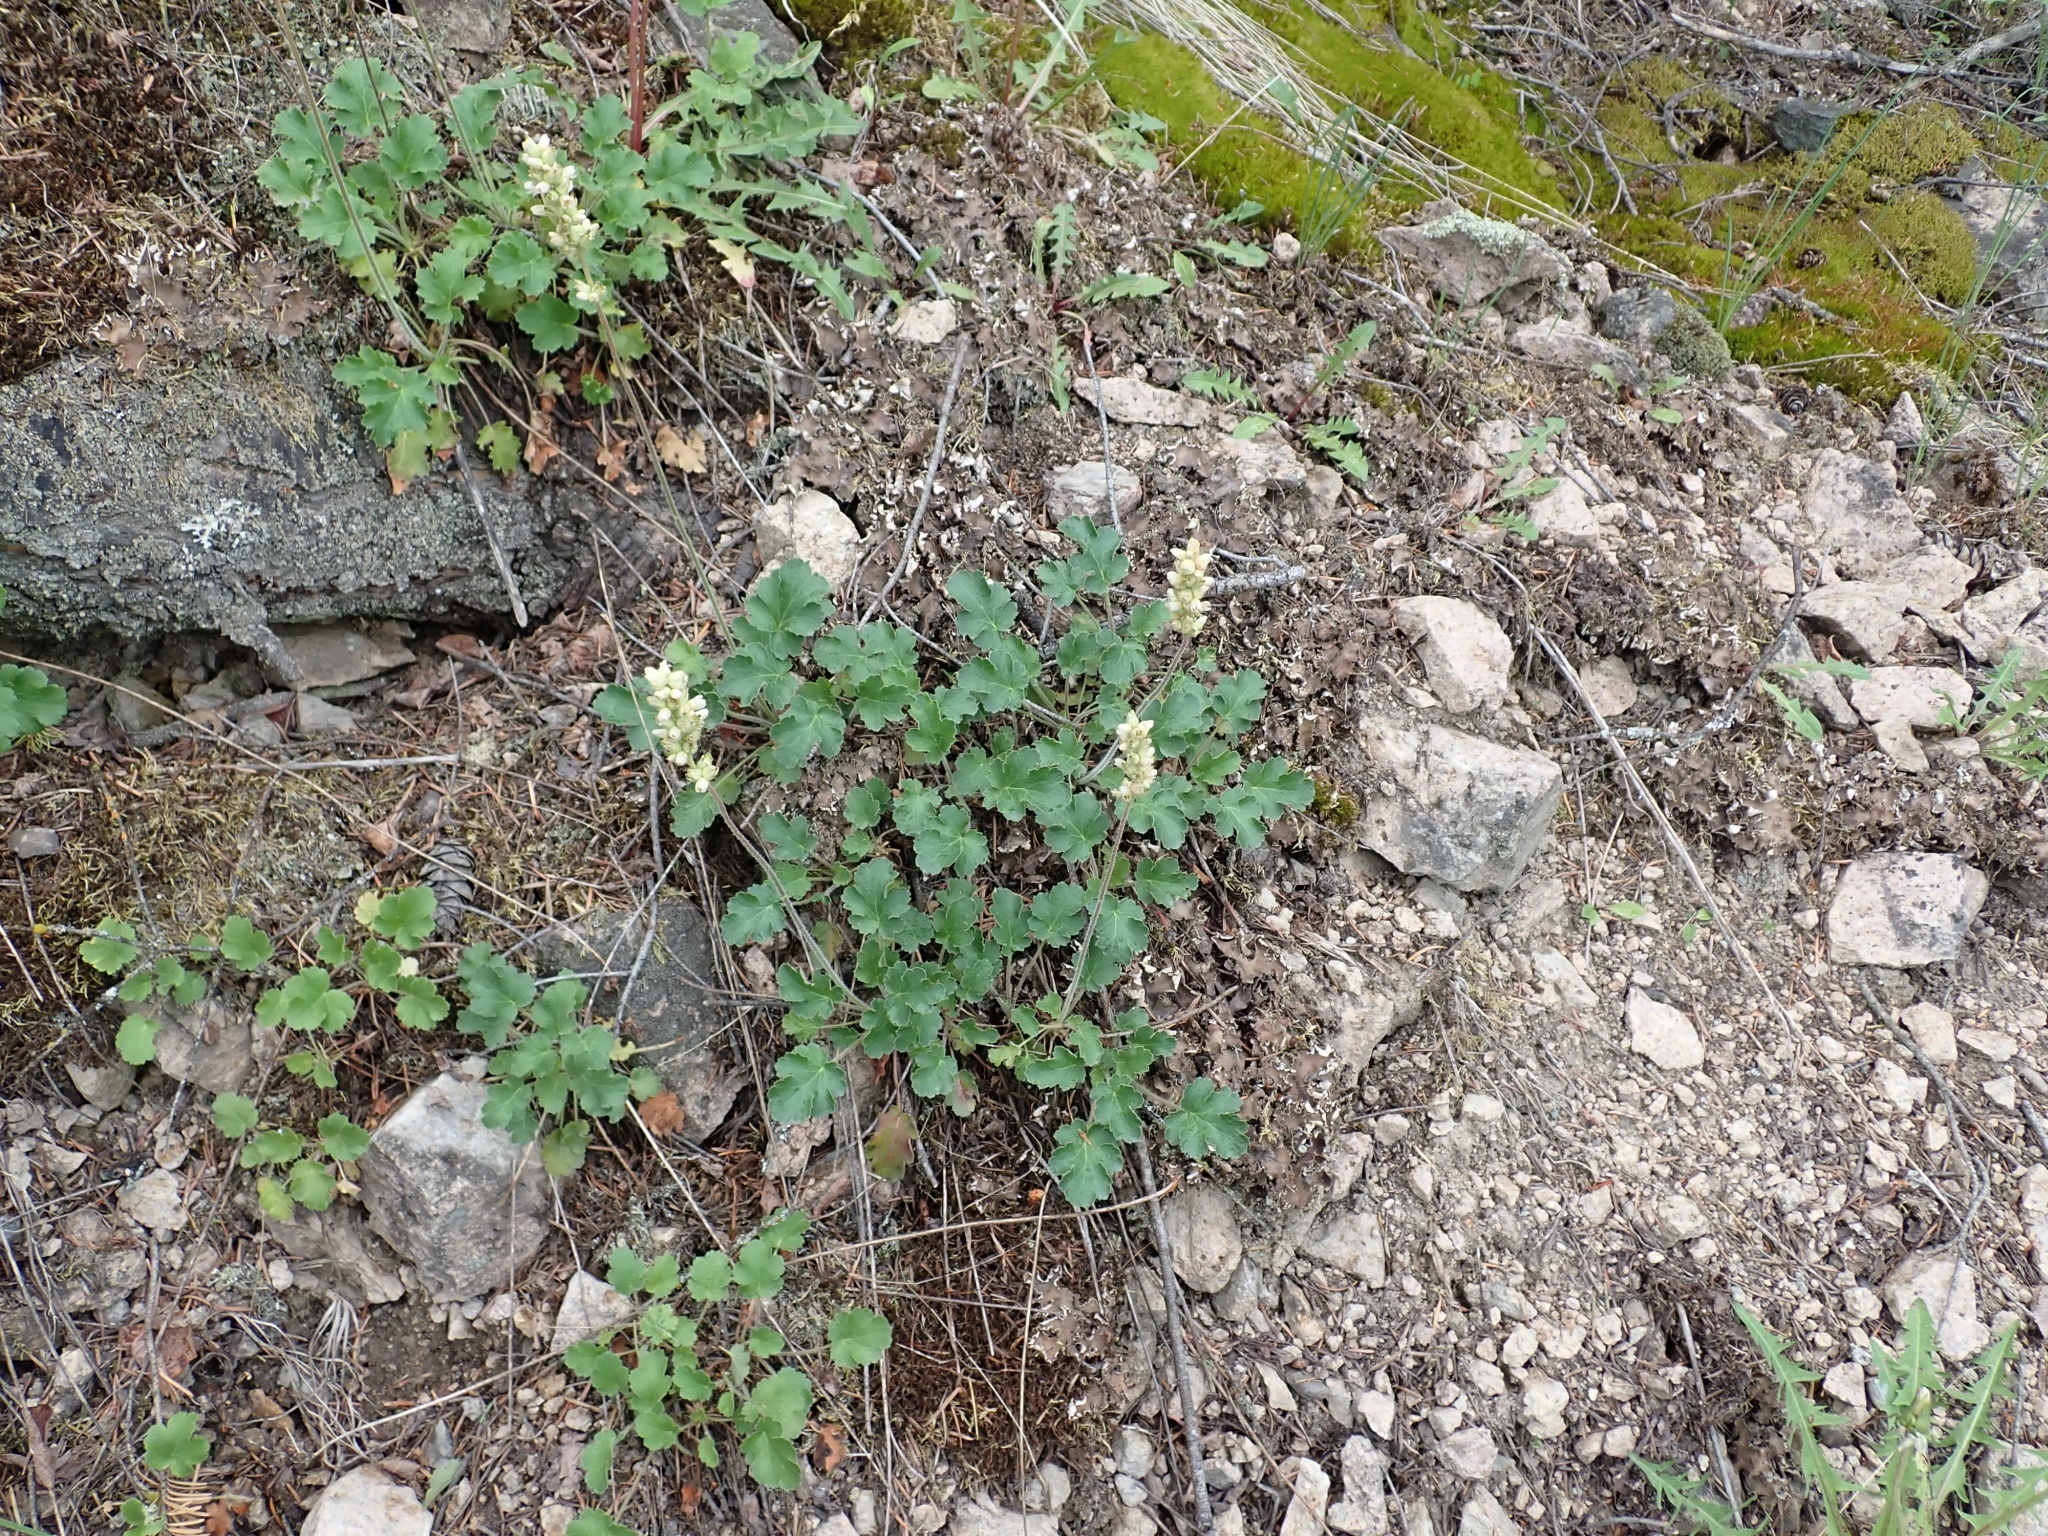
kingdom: Plantae
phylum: Tracheophyta
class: Magnoliopsida
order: Saxifragales
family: Saxifragaceae
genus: Heuchera
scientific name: Heuchera cylindrica
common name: Mat alumroot
